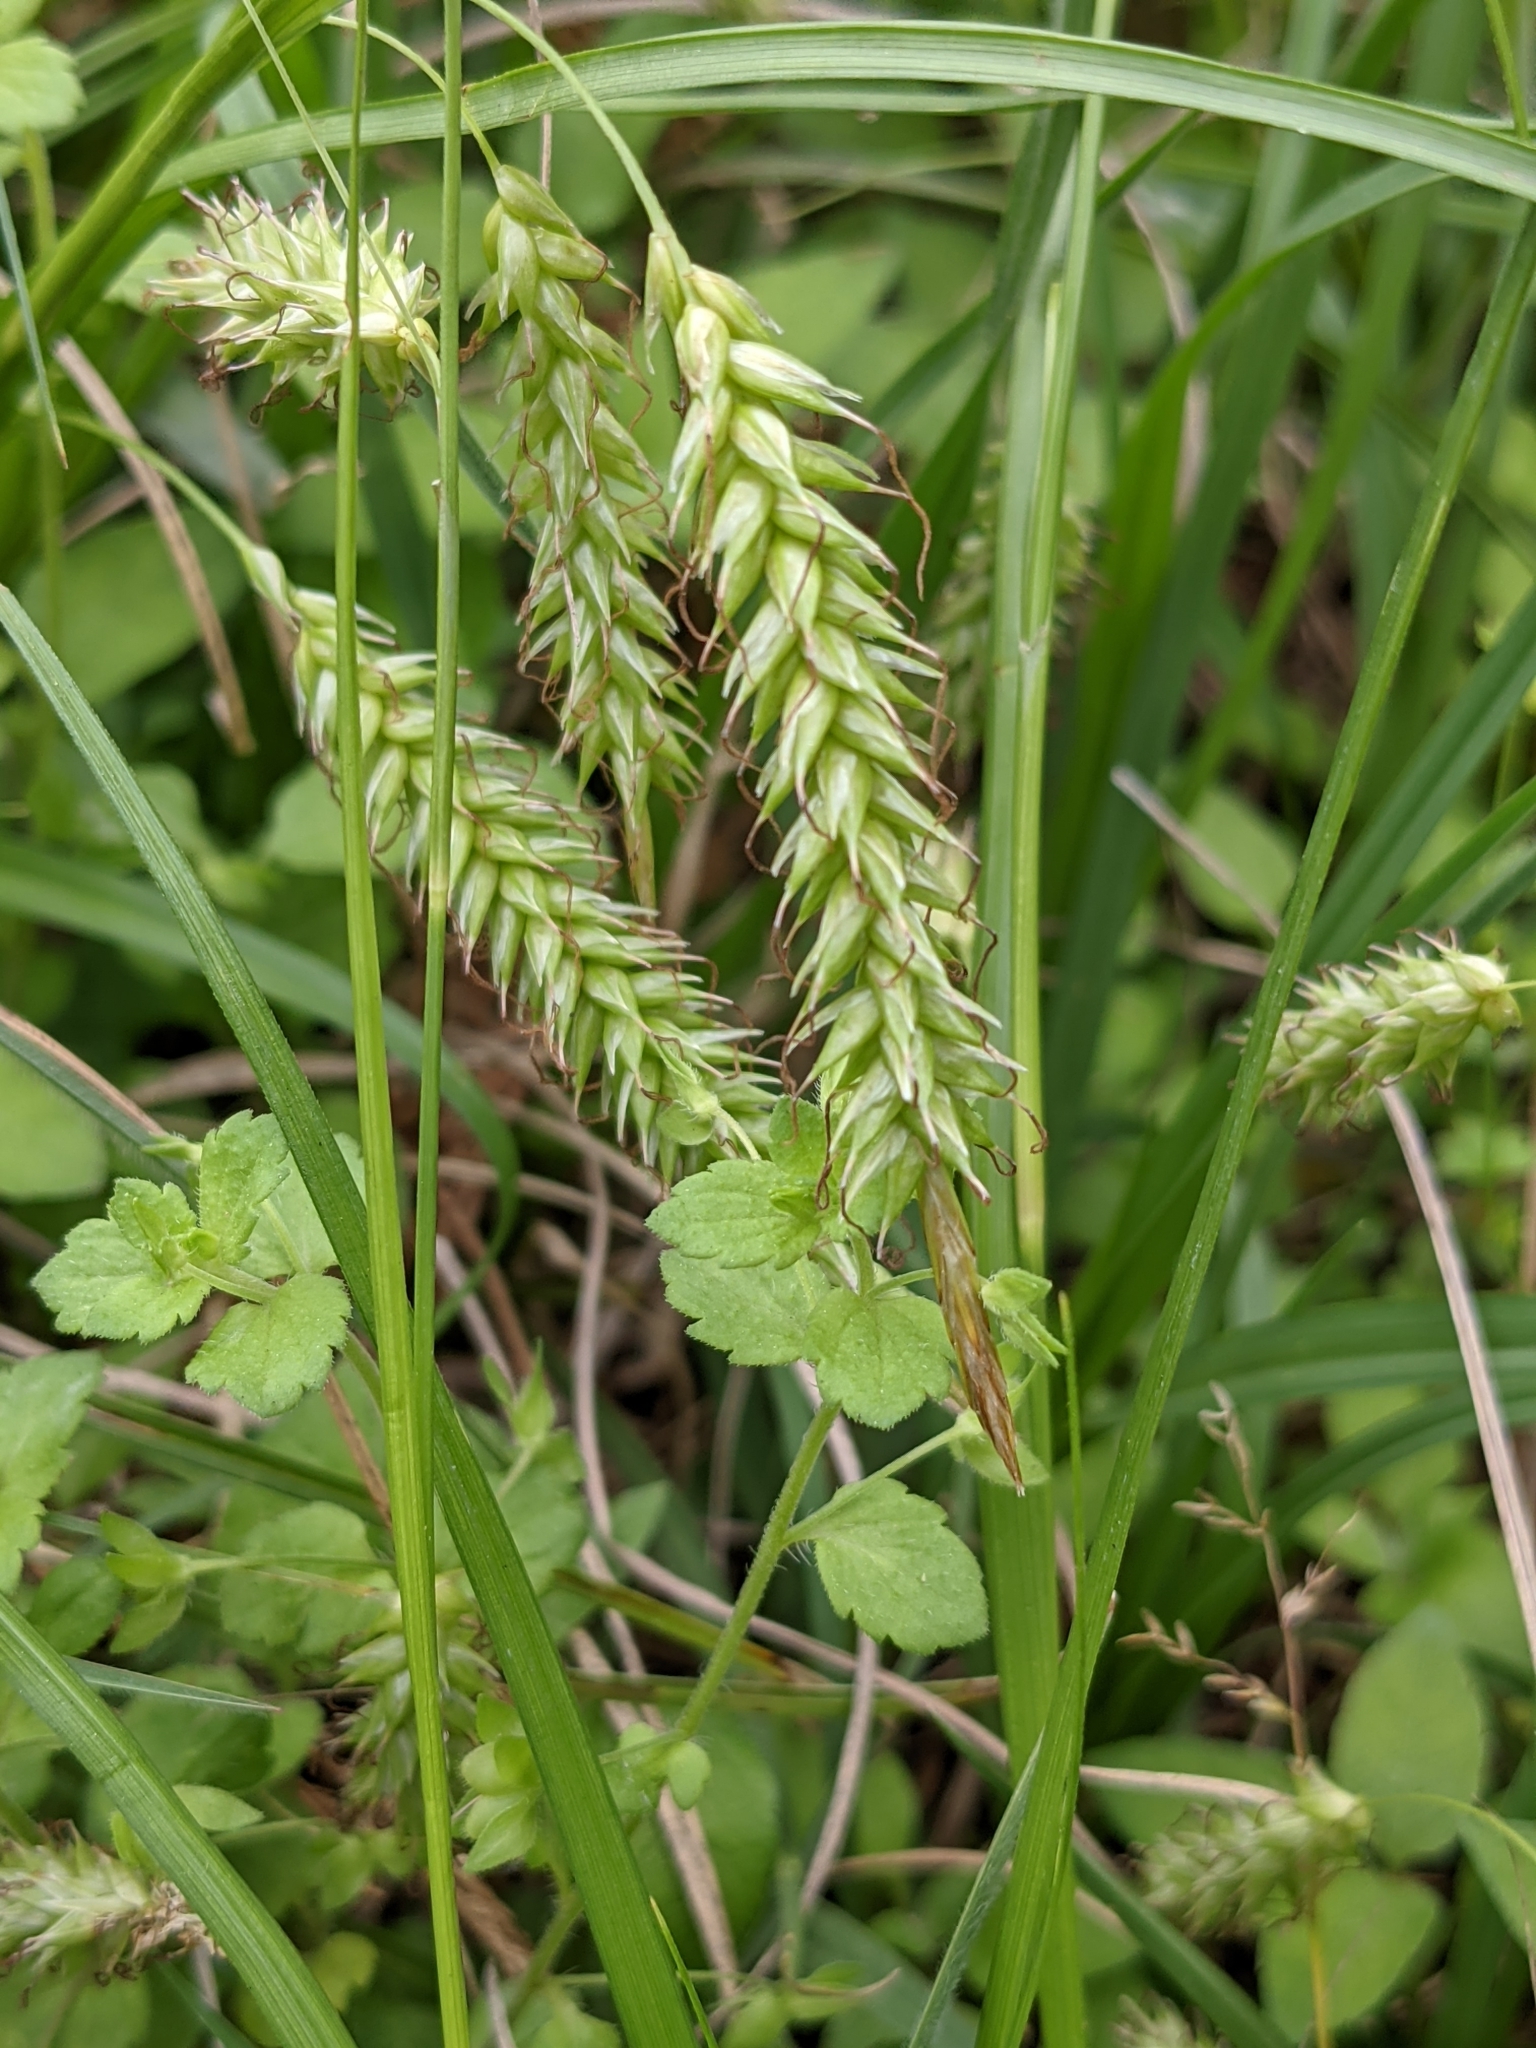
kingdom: Plantae
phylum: Tracheophyta
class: Liliopsida
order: Poales
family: Cyperaceae
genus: Carex
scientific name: Carex cherokeensis
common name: Cherokee sedge
